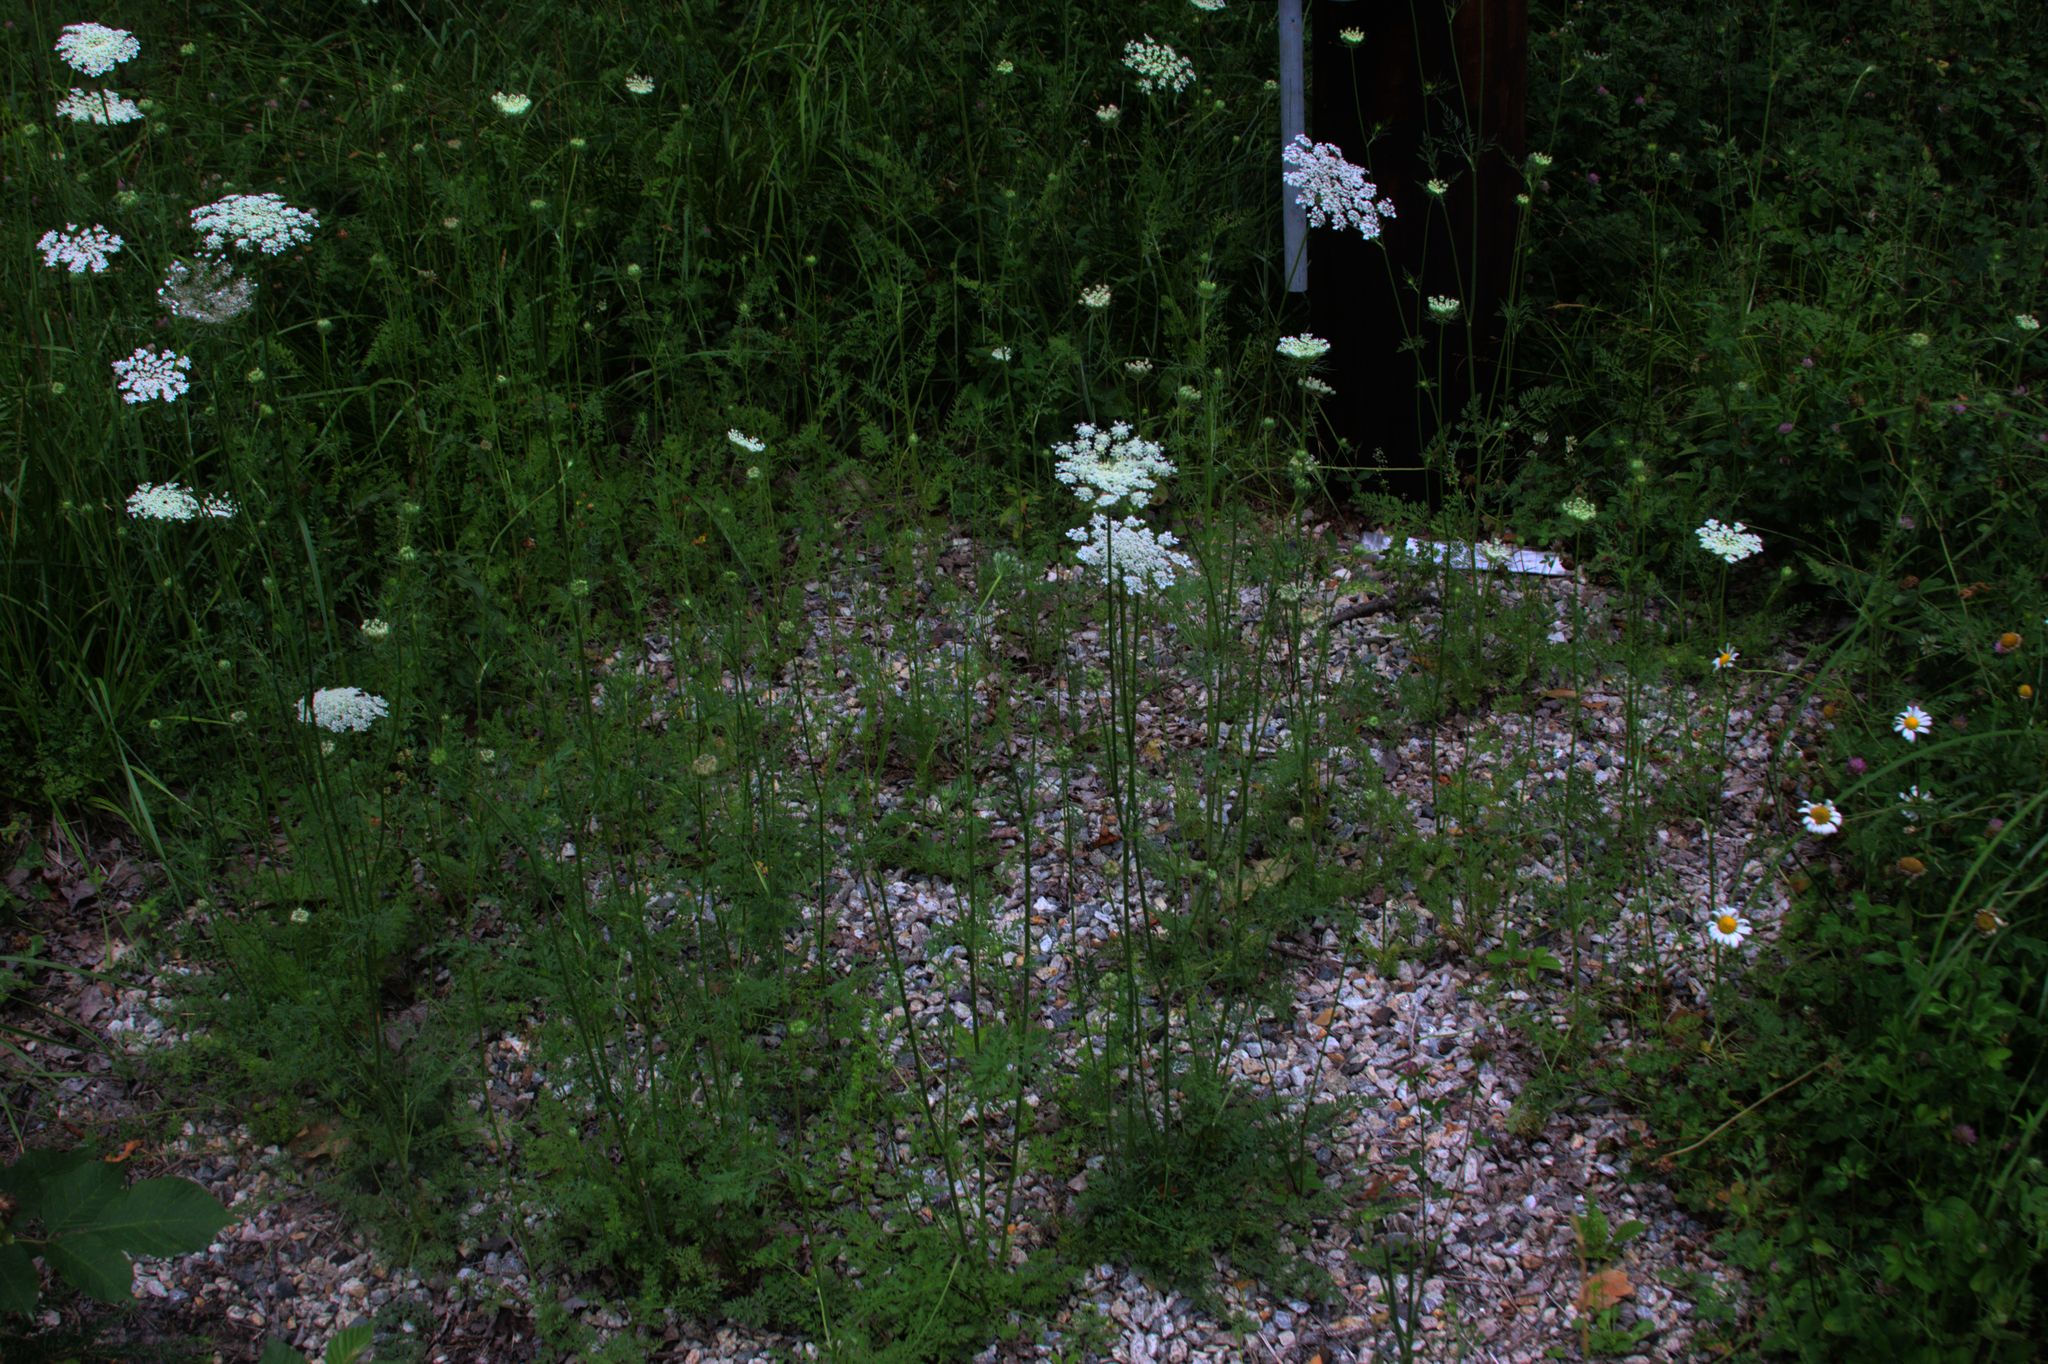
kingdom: Plantae
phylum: Tracheophyta
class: Magnoliopsida
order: Apiales
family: Apiaceae
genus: Daucus
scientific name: Daucus carota
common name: Wild carrot
